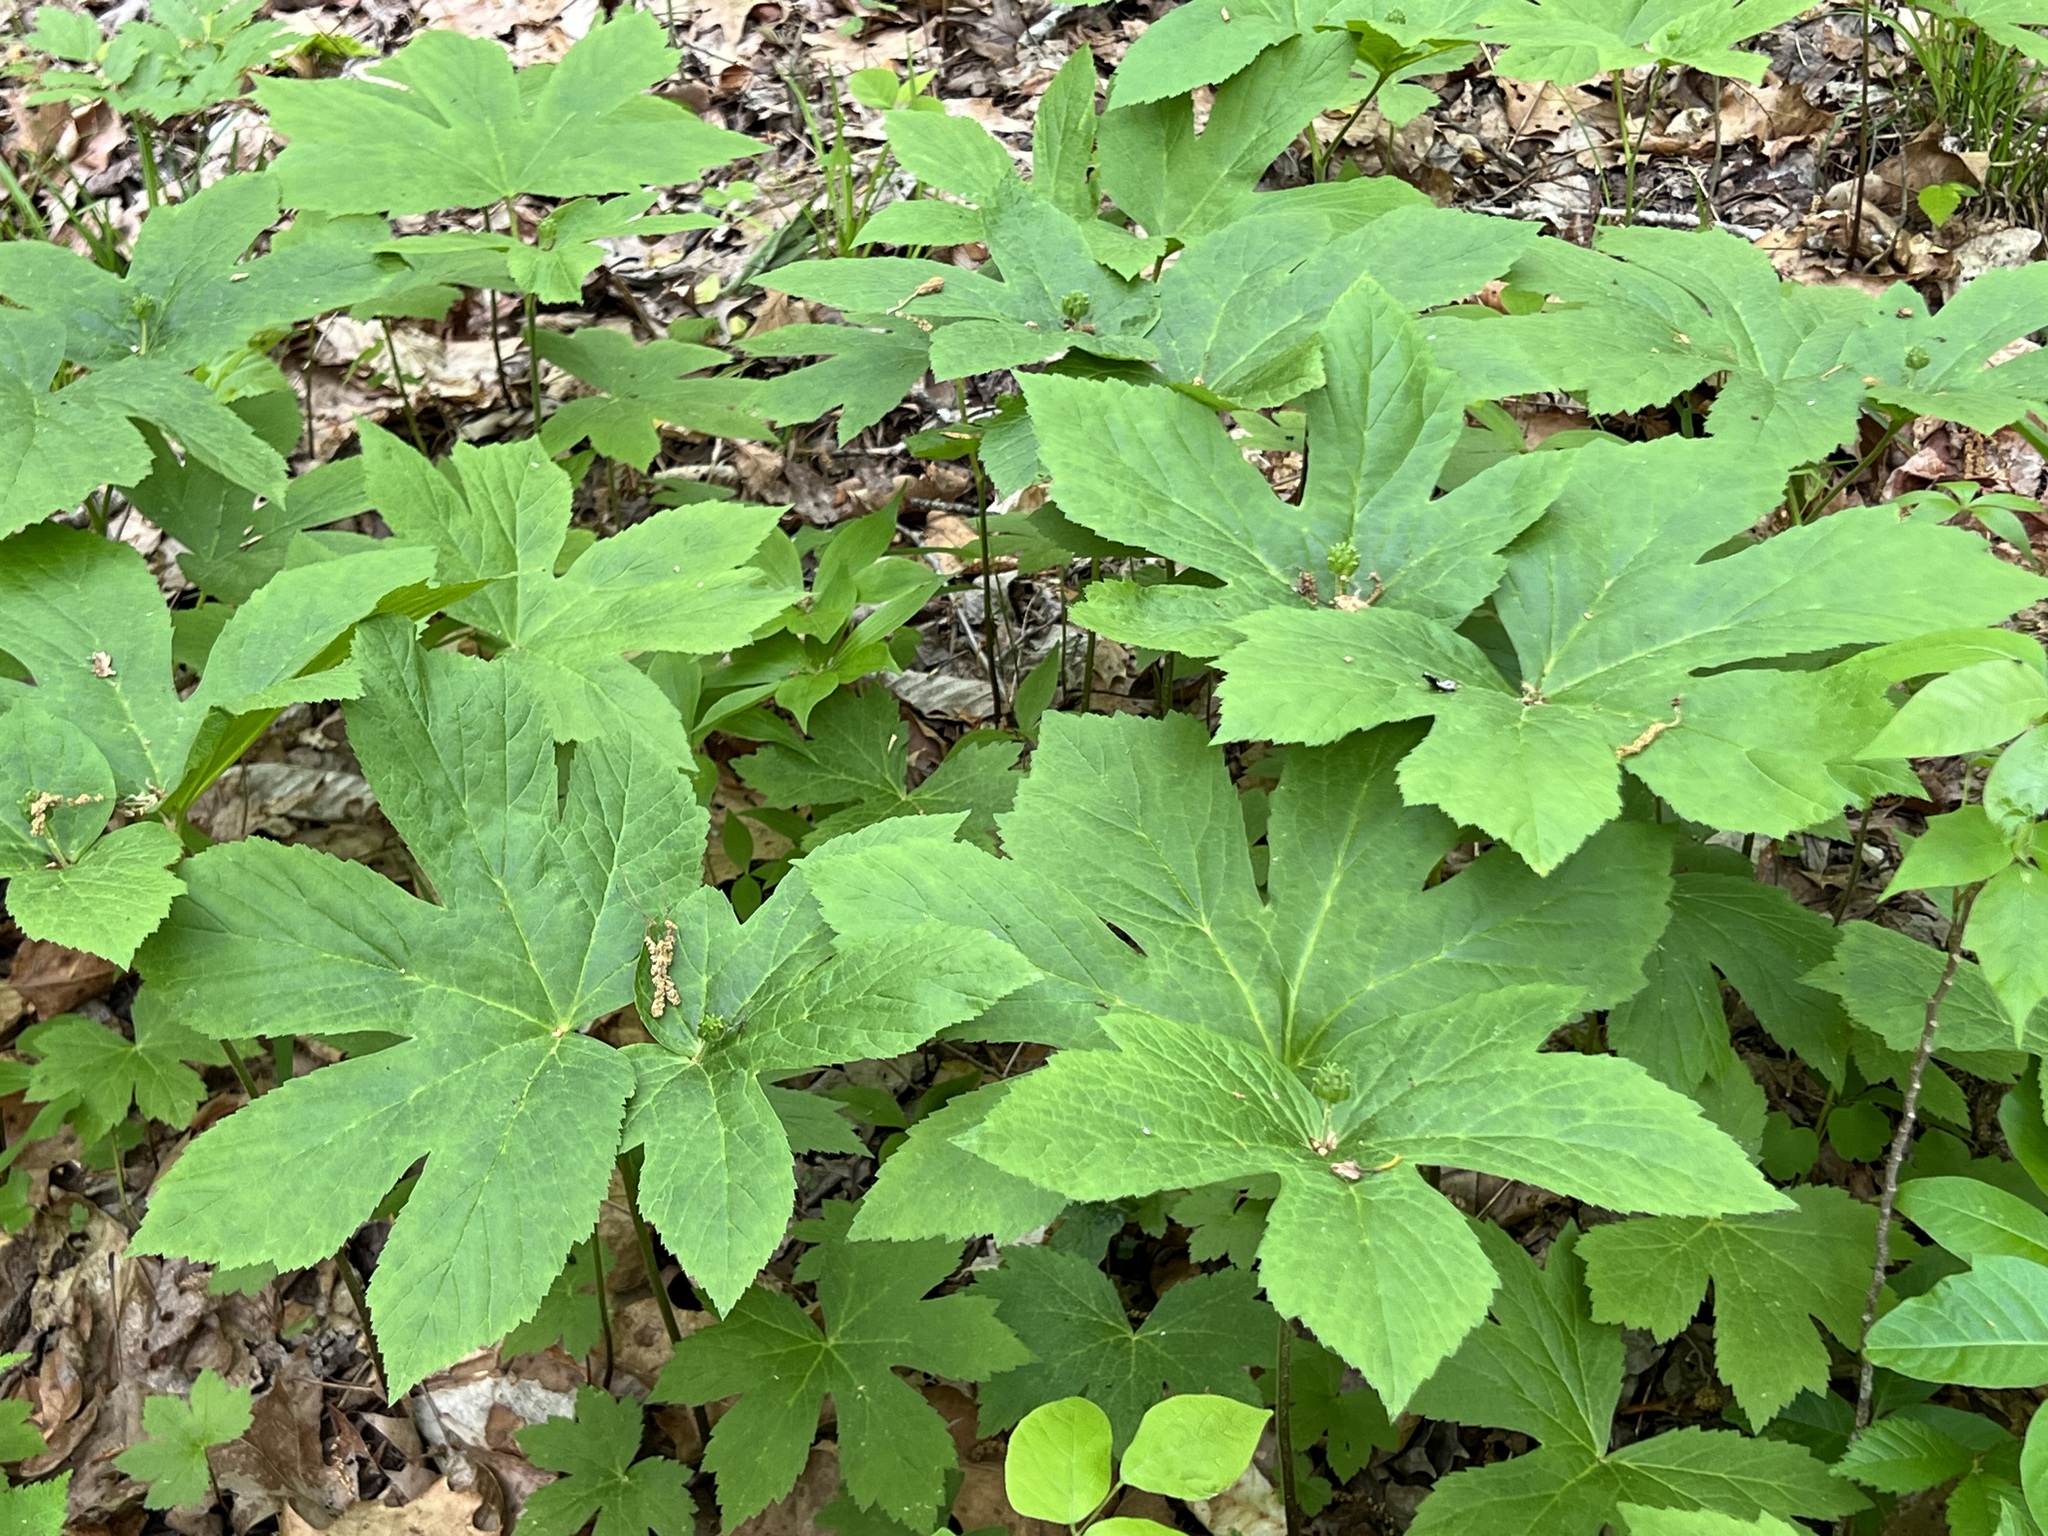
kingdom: Plantae
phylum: Tracheophyta
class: Magnoliopsida
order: Ranunculales
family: Ranunculaceae
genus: Hydrastis
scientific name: Hydrastis canadensis
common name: Goldenseal
